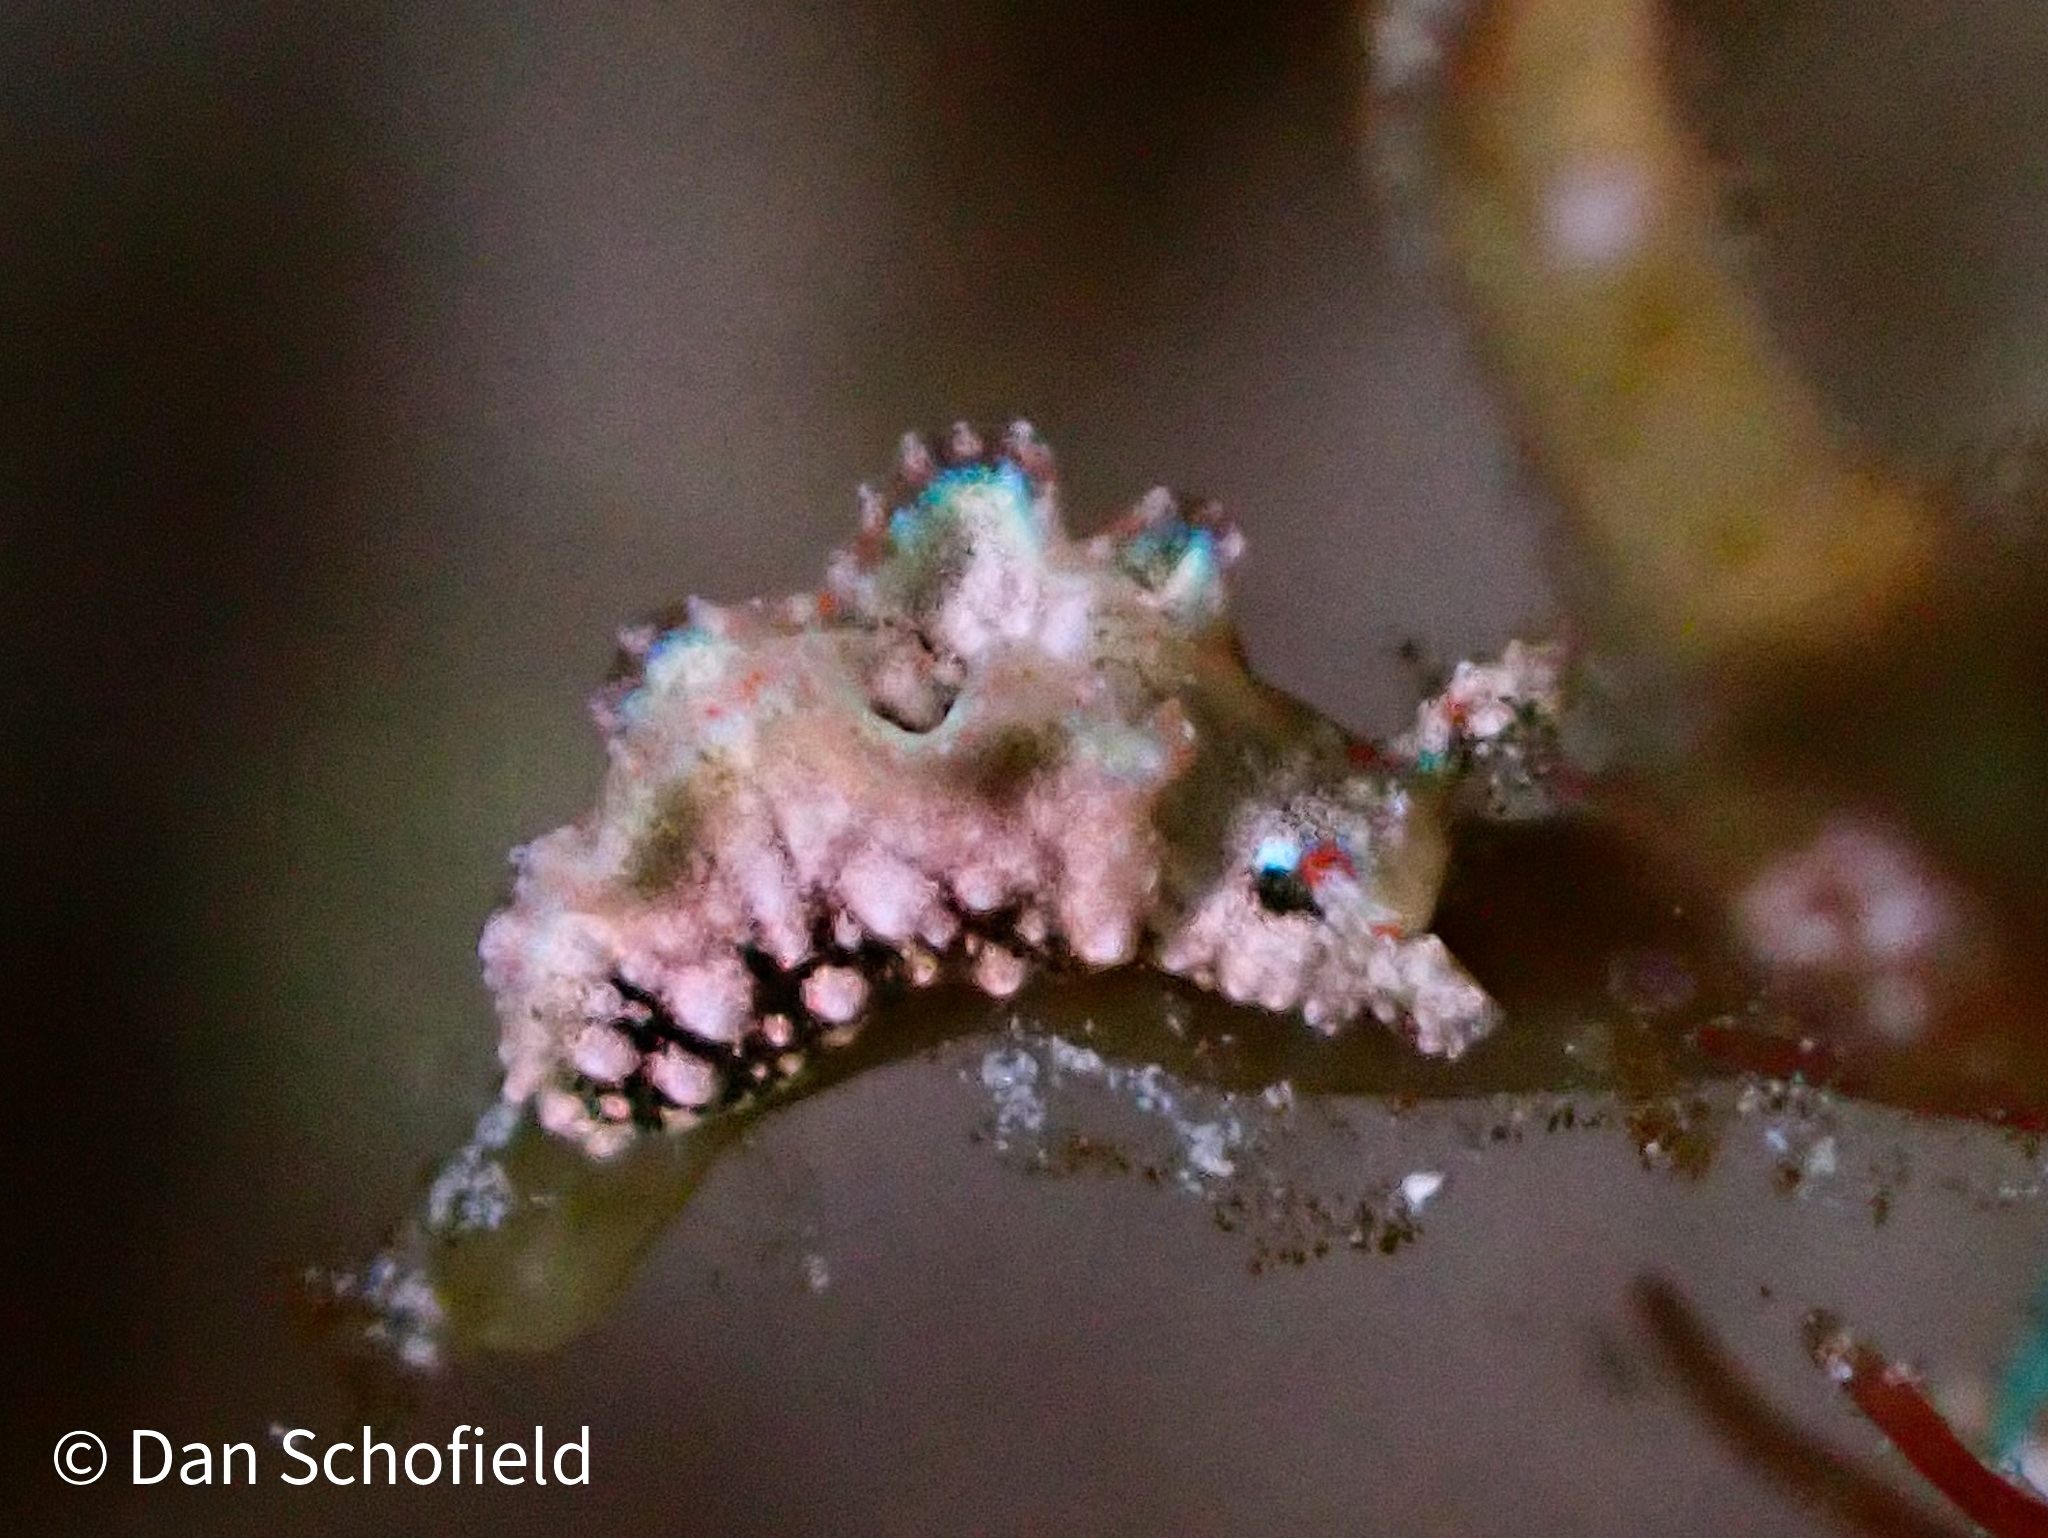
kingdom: Animalia
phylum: Mollusca
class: Gastropoda
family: Plakobranchidae
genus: Elysia
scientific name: Elysia ellenae
